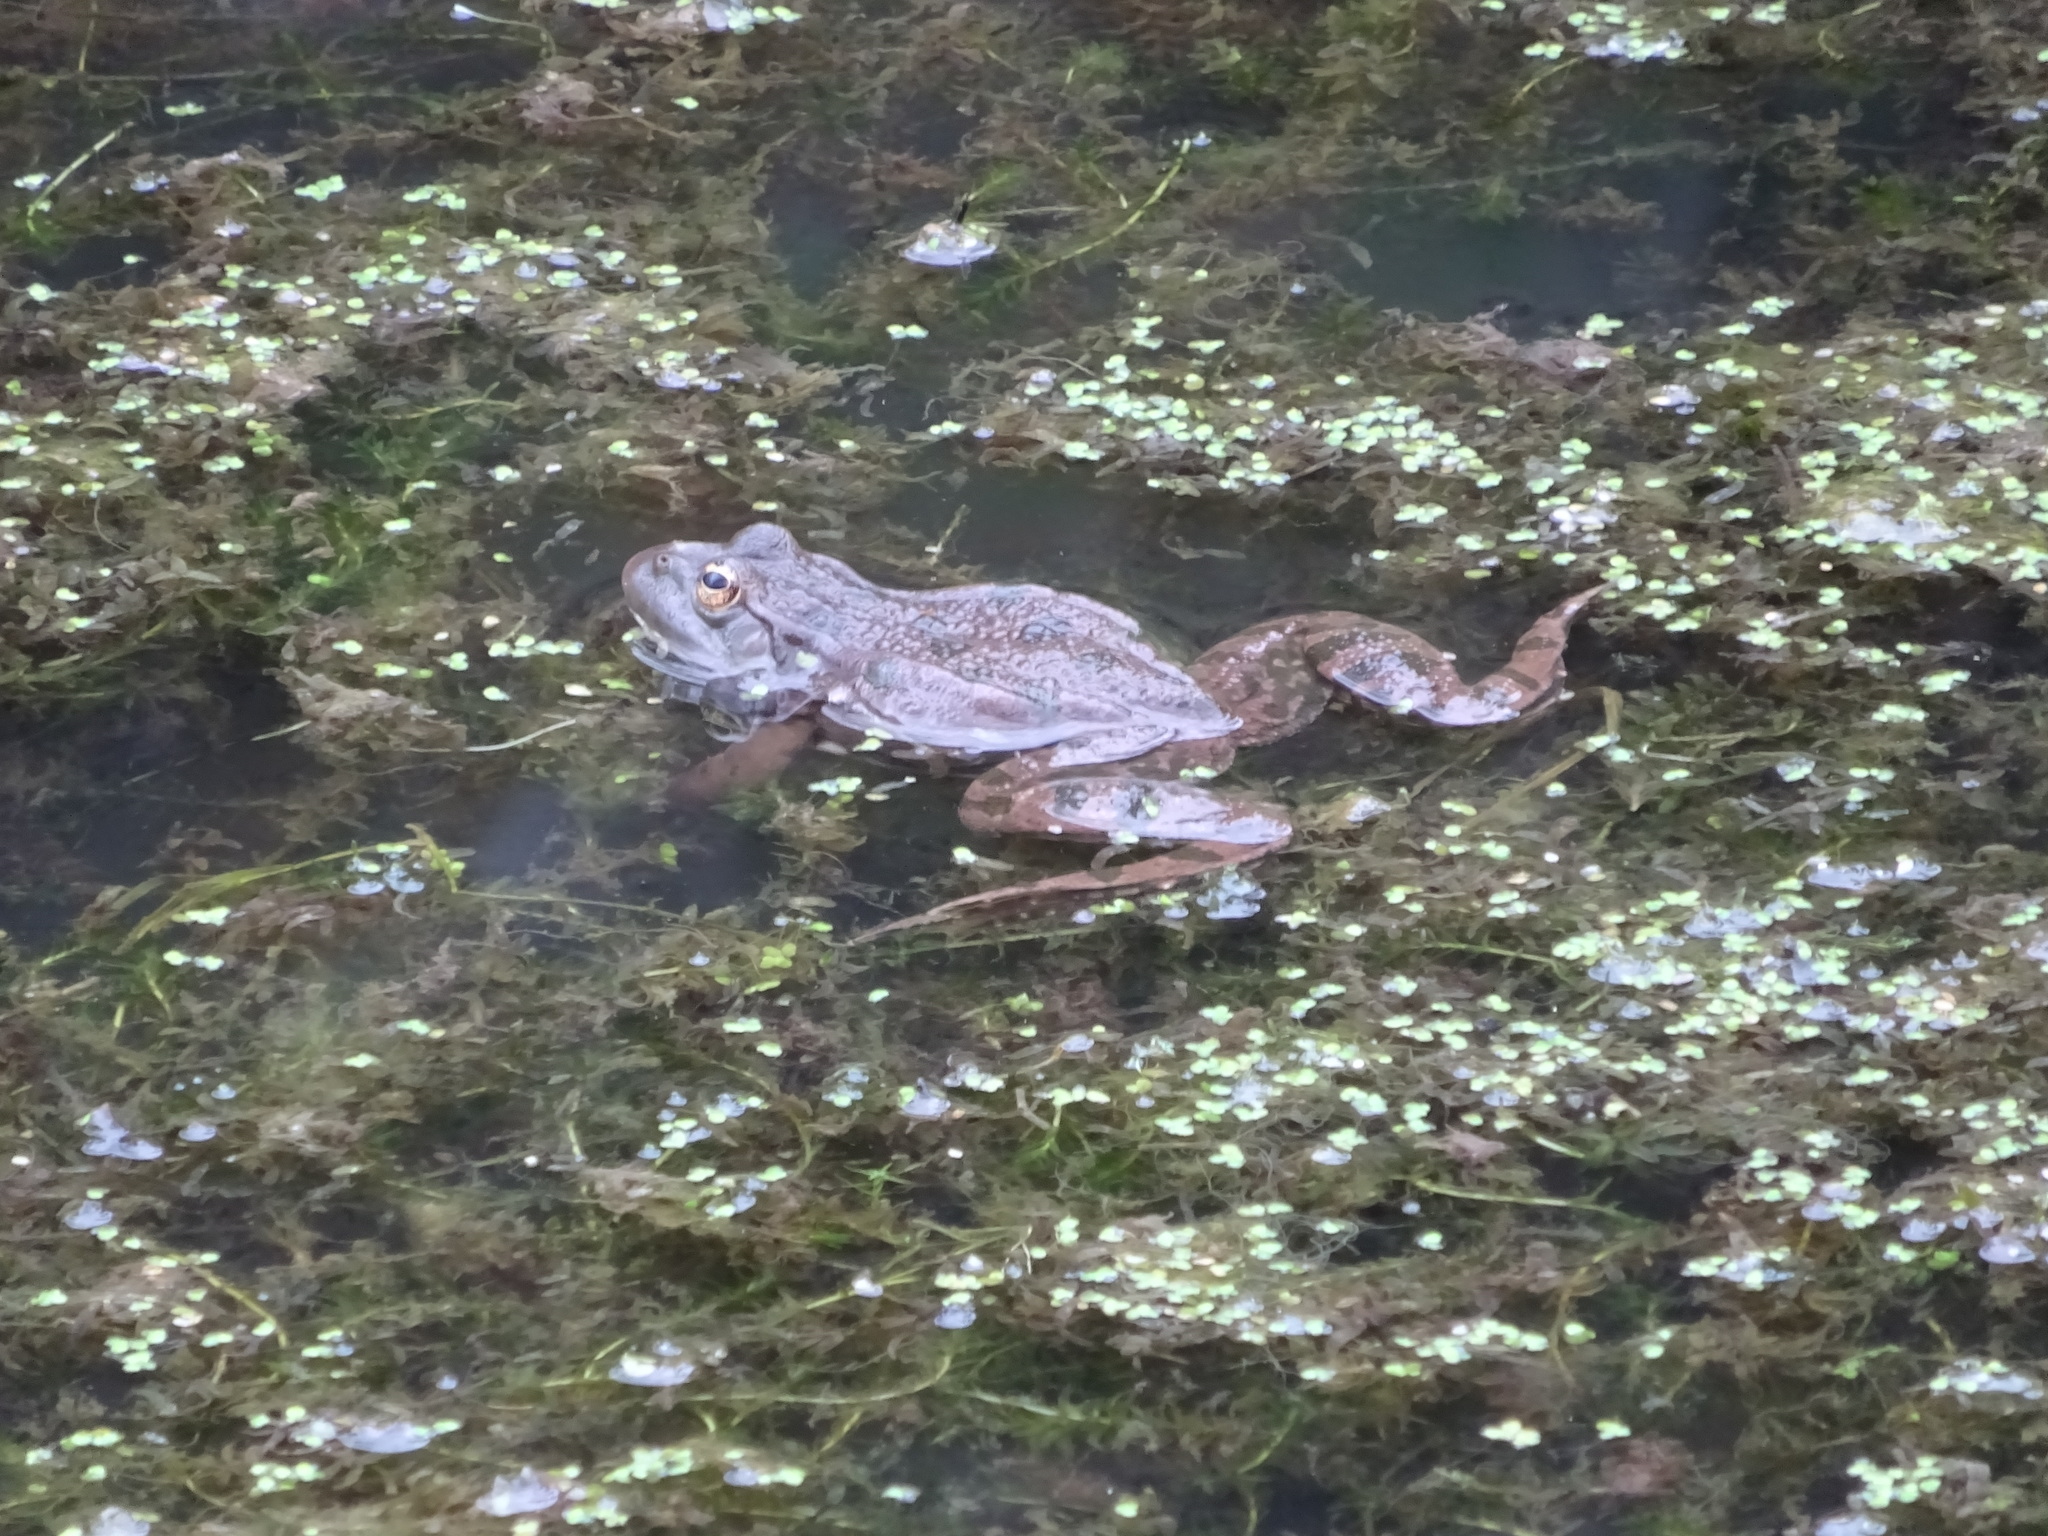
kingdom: Animalia
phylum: Chordata
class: Amphibia
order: Anura
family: Ranidae
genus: Pelophylax
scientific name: Pelophylax ridibundus
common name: Marsh frog
